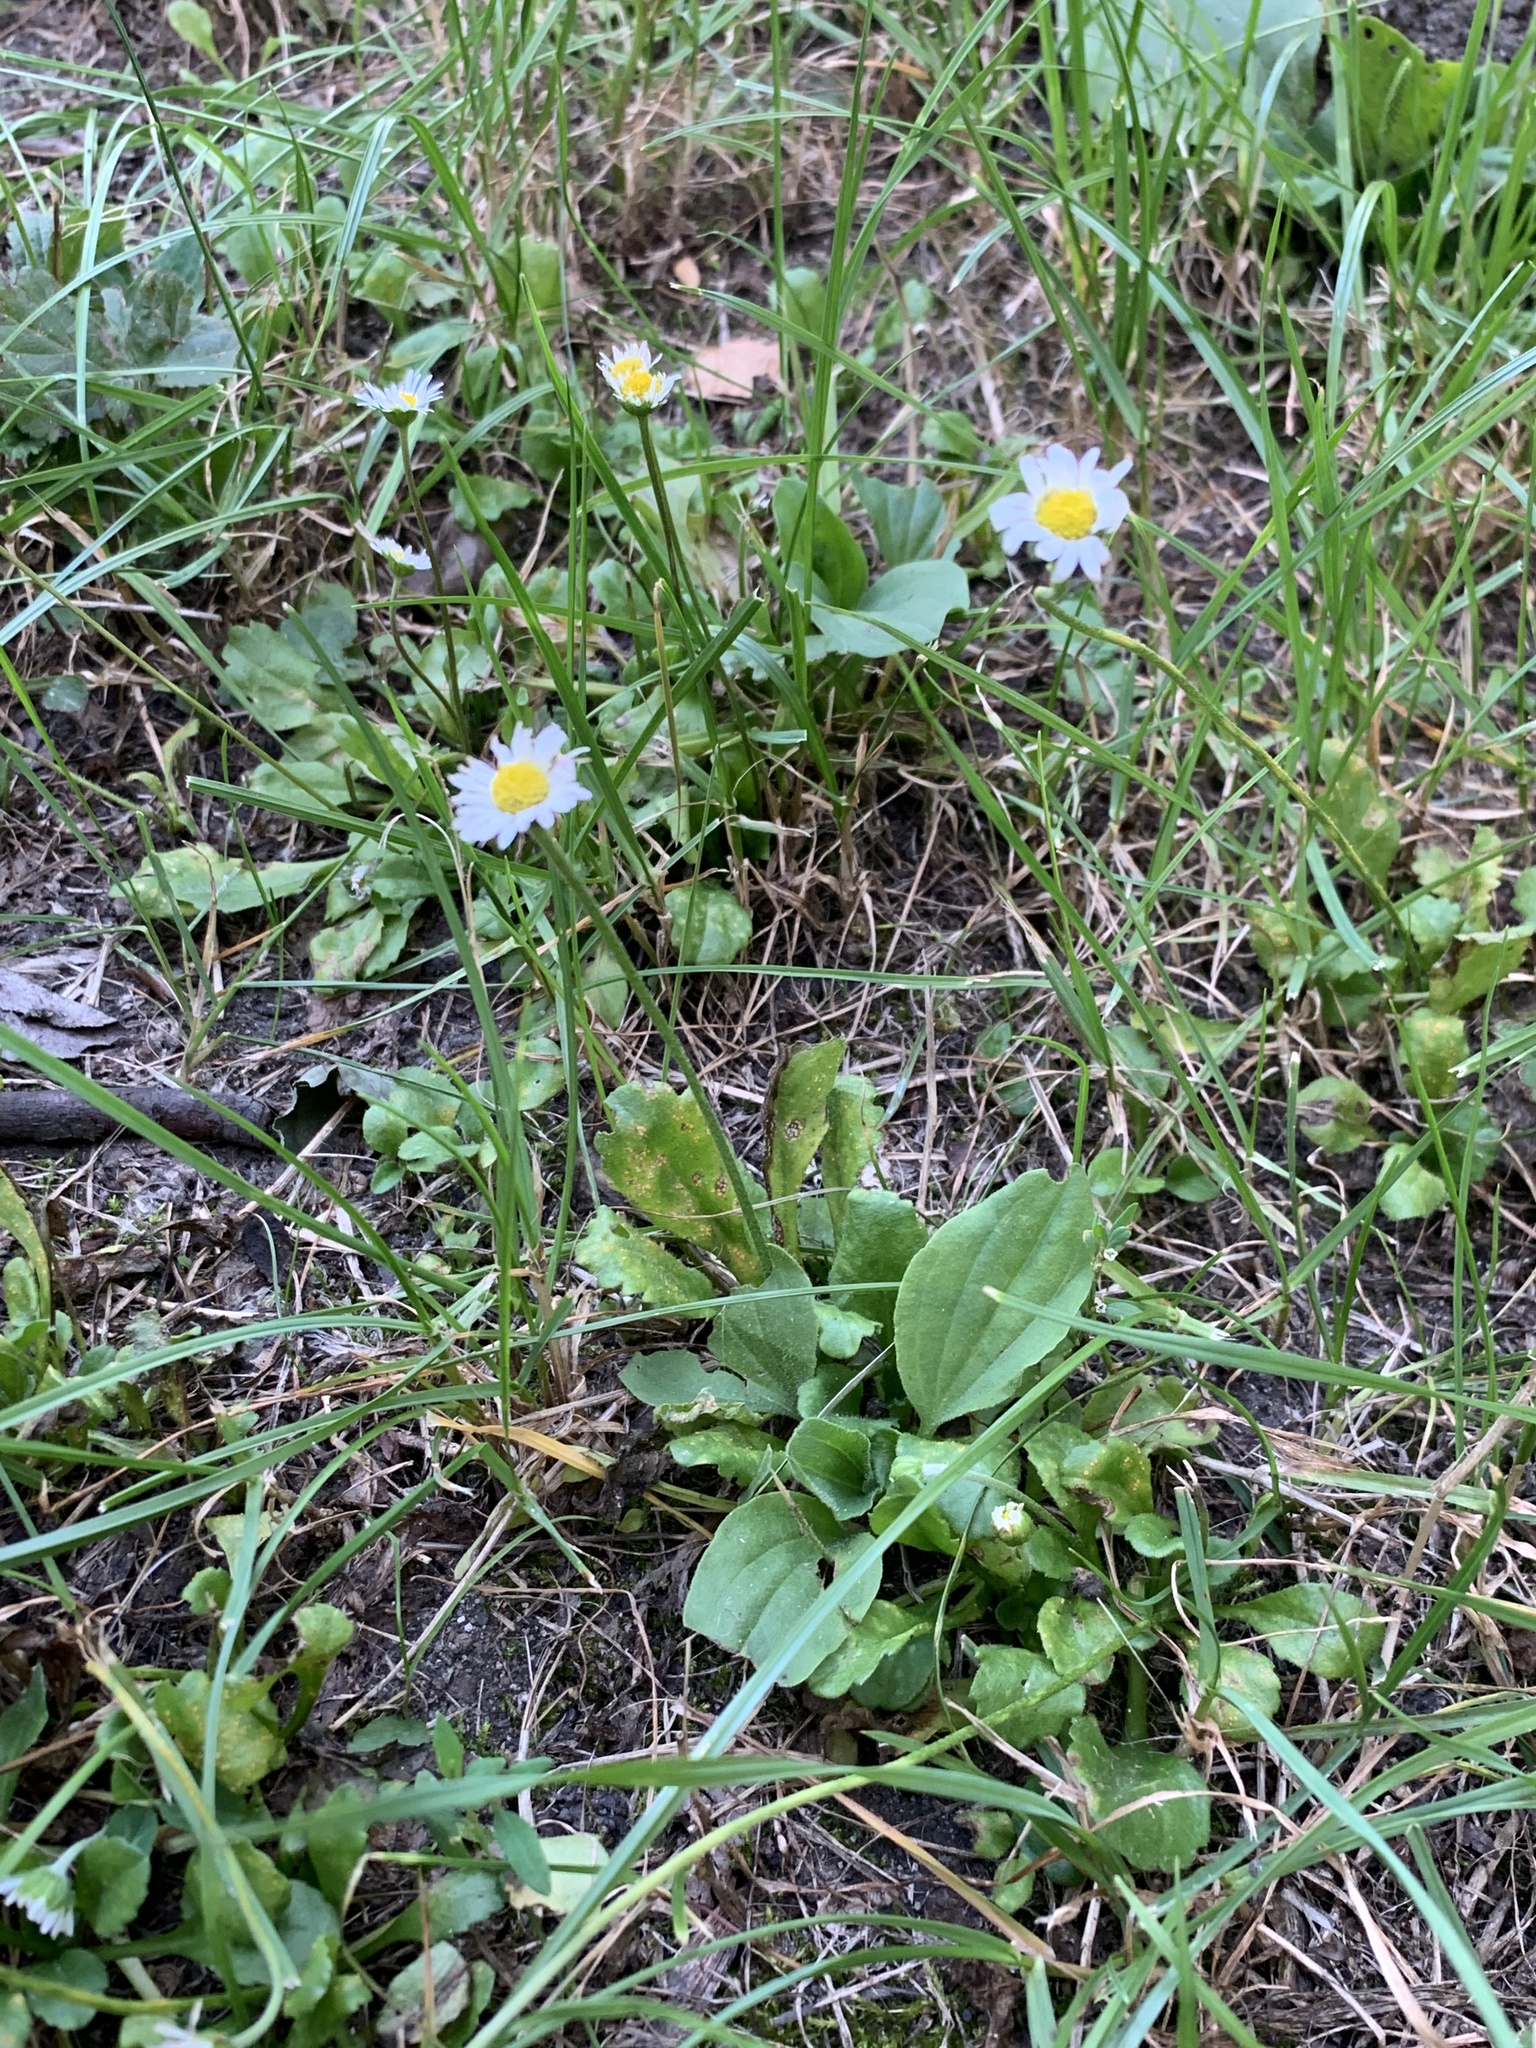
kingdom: Plantae
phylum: Tracheophyta
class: Magnoliopsida
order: Asterales
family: Asteraceae
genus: Bellis
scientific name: Bellis perennis
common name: Lawndaisy
